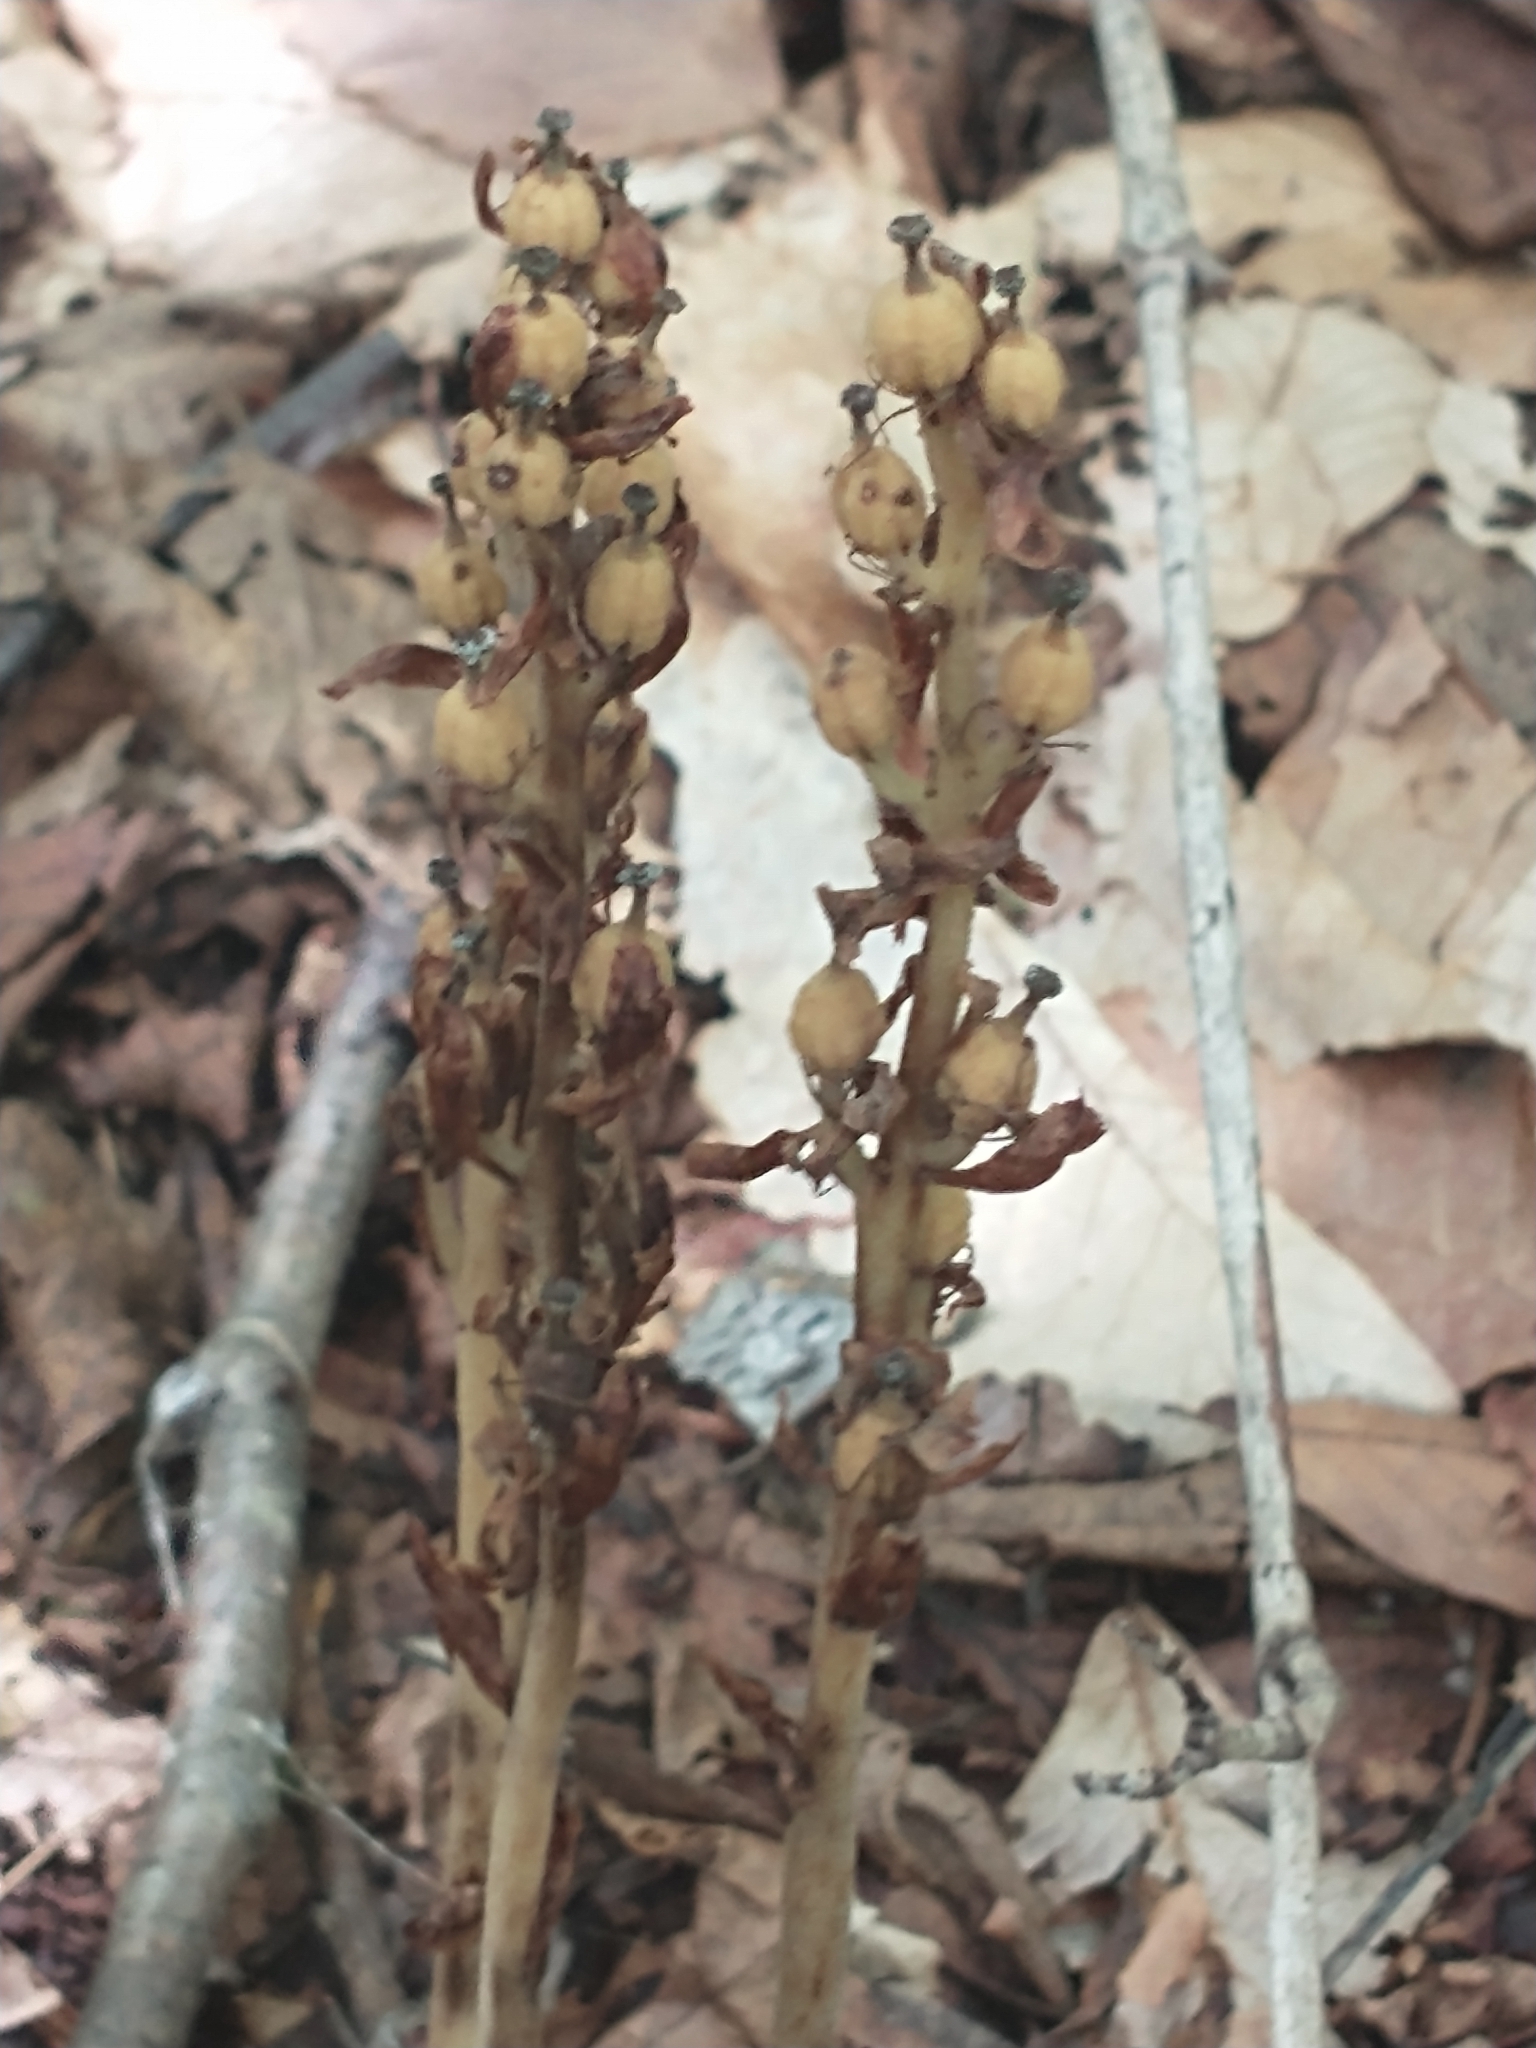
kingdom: Plantae
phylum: Tracheophyta
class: Magnoliopsida
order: Ericales
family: Ericaceae
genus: Hypopitys
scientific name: Hypopitys monotropa
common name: Yellow bird's-nest
